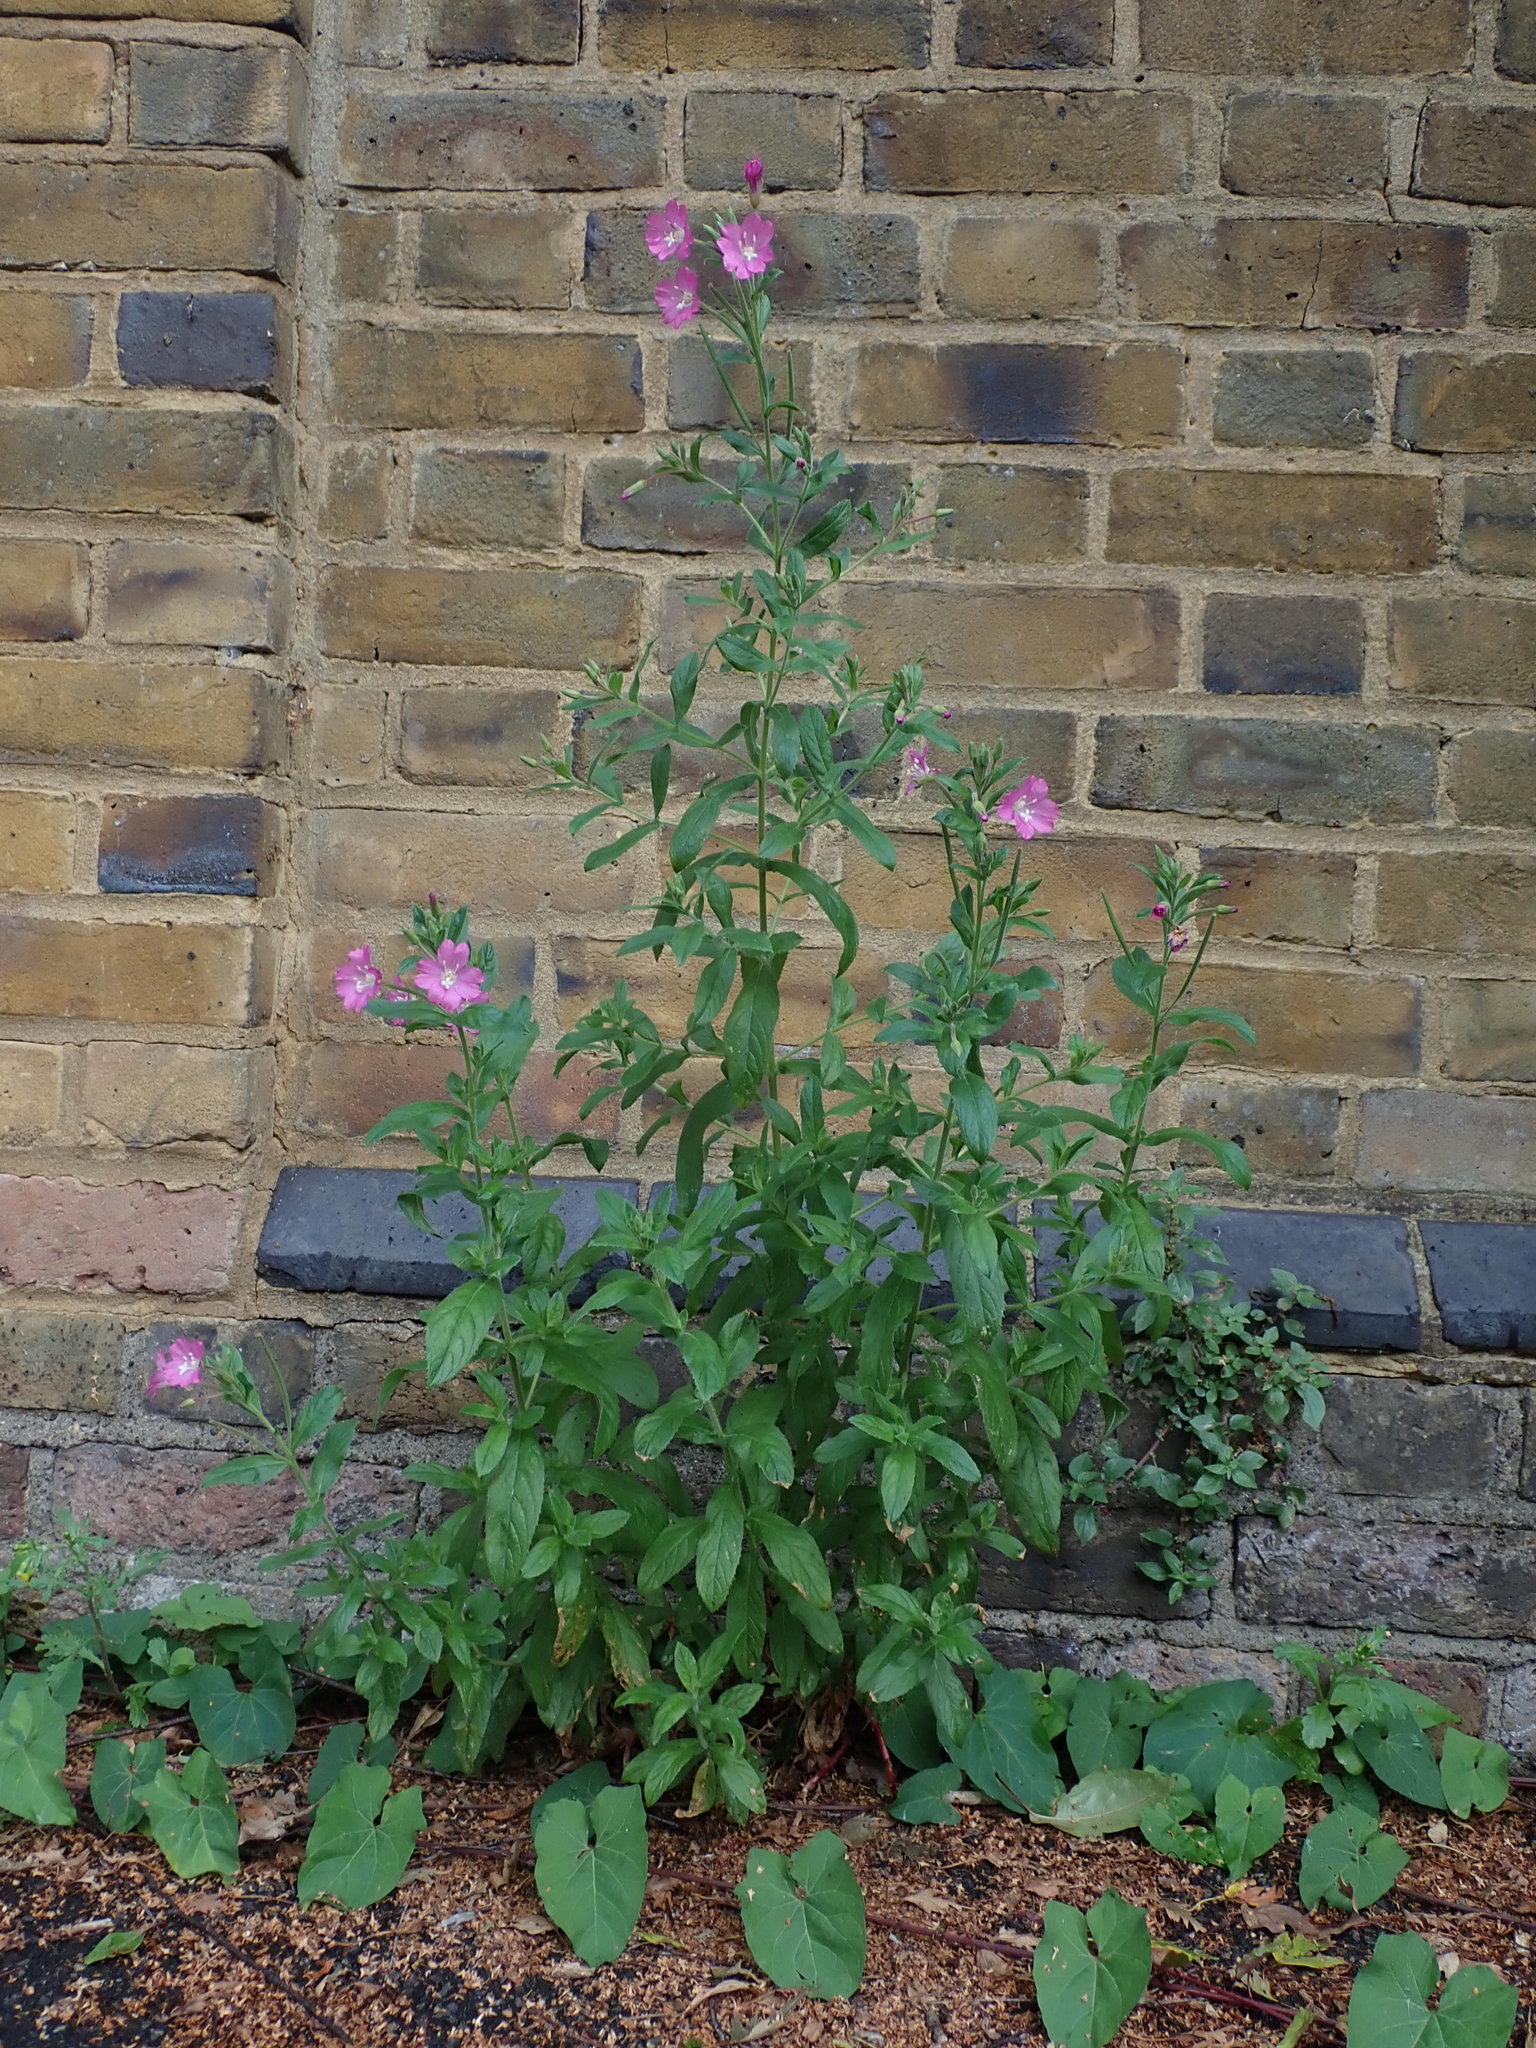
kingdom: Plantae
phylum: Tracheophyta
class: Magnoliopsida
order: Myrtales
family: Onagraceae
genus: Epilobium
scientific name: Epilobium hirsutum
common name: Great willowherb
